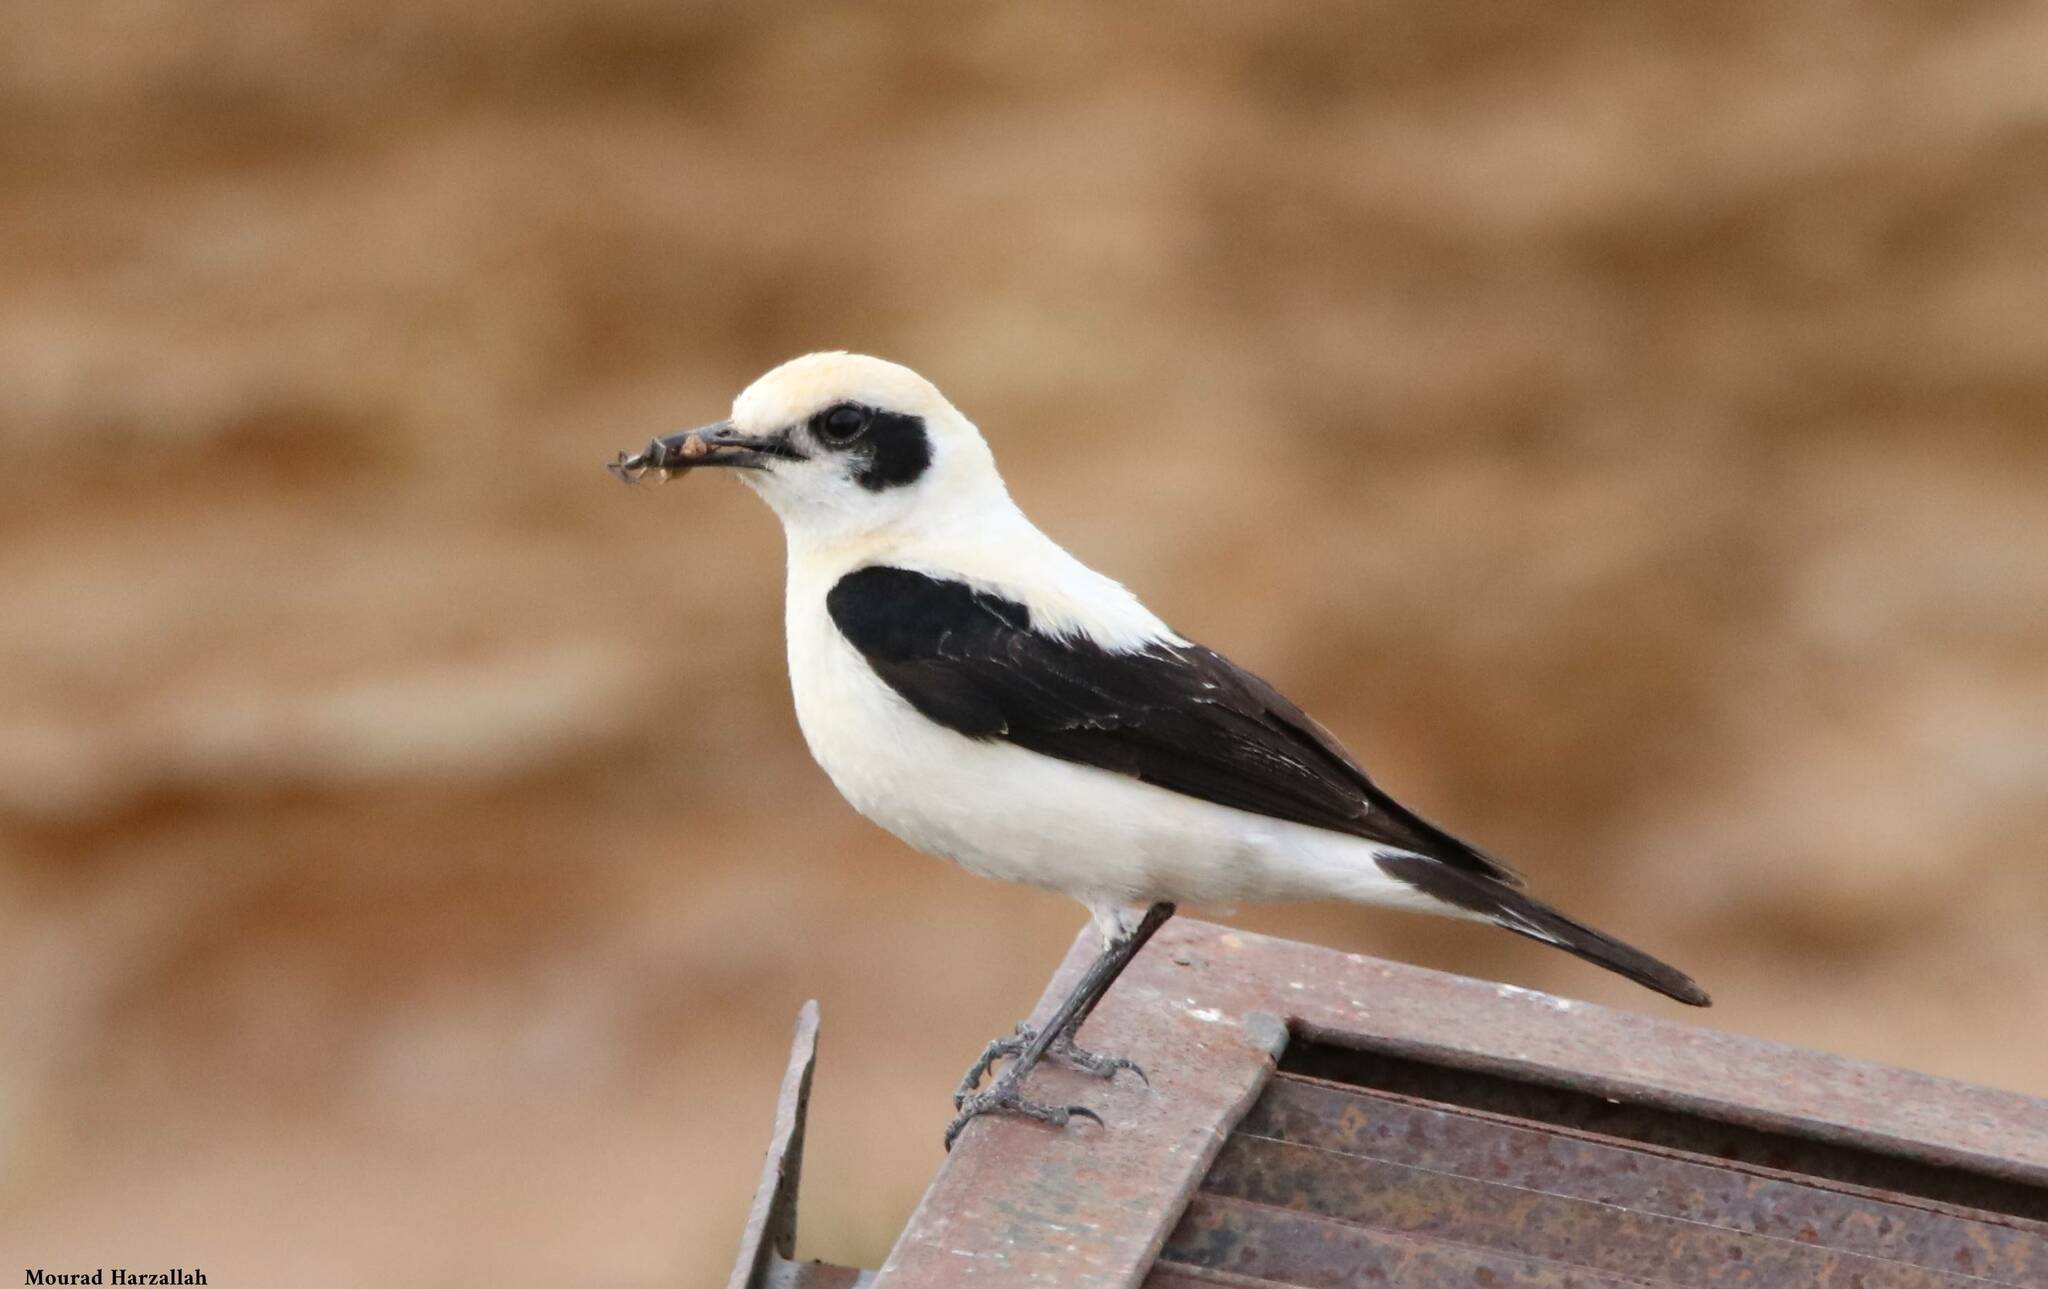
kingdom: Animalia
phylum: Chordata
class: Aves
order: Passeriformes
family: Muscicapidae
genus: Oenanthe
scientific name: Oenanthe hispanica
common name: Black-eared wheatear
